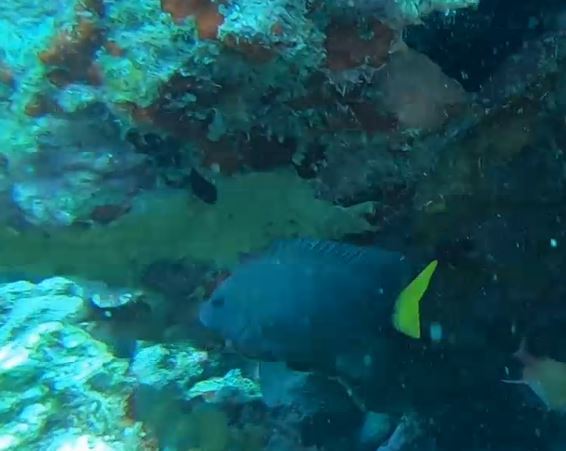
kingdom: Animalia
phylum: Chordata
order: Perciformes
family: Pomacentridae
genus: Microspathodon
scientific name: Microspathodon chrysurus
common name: Yellowtail damselfish
